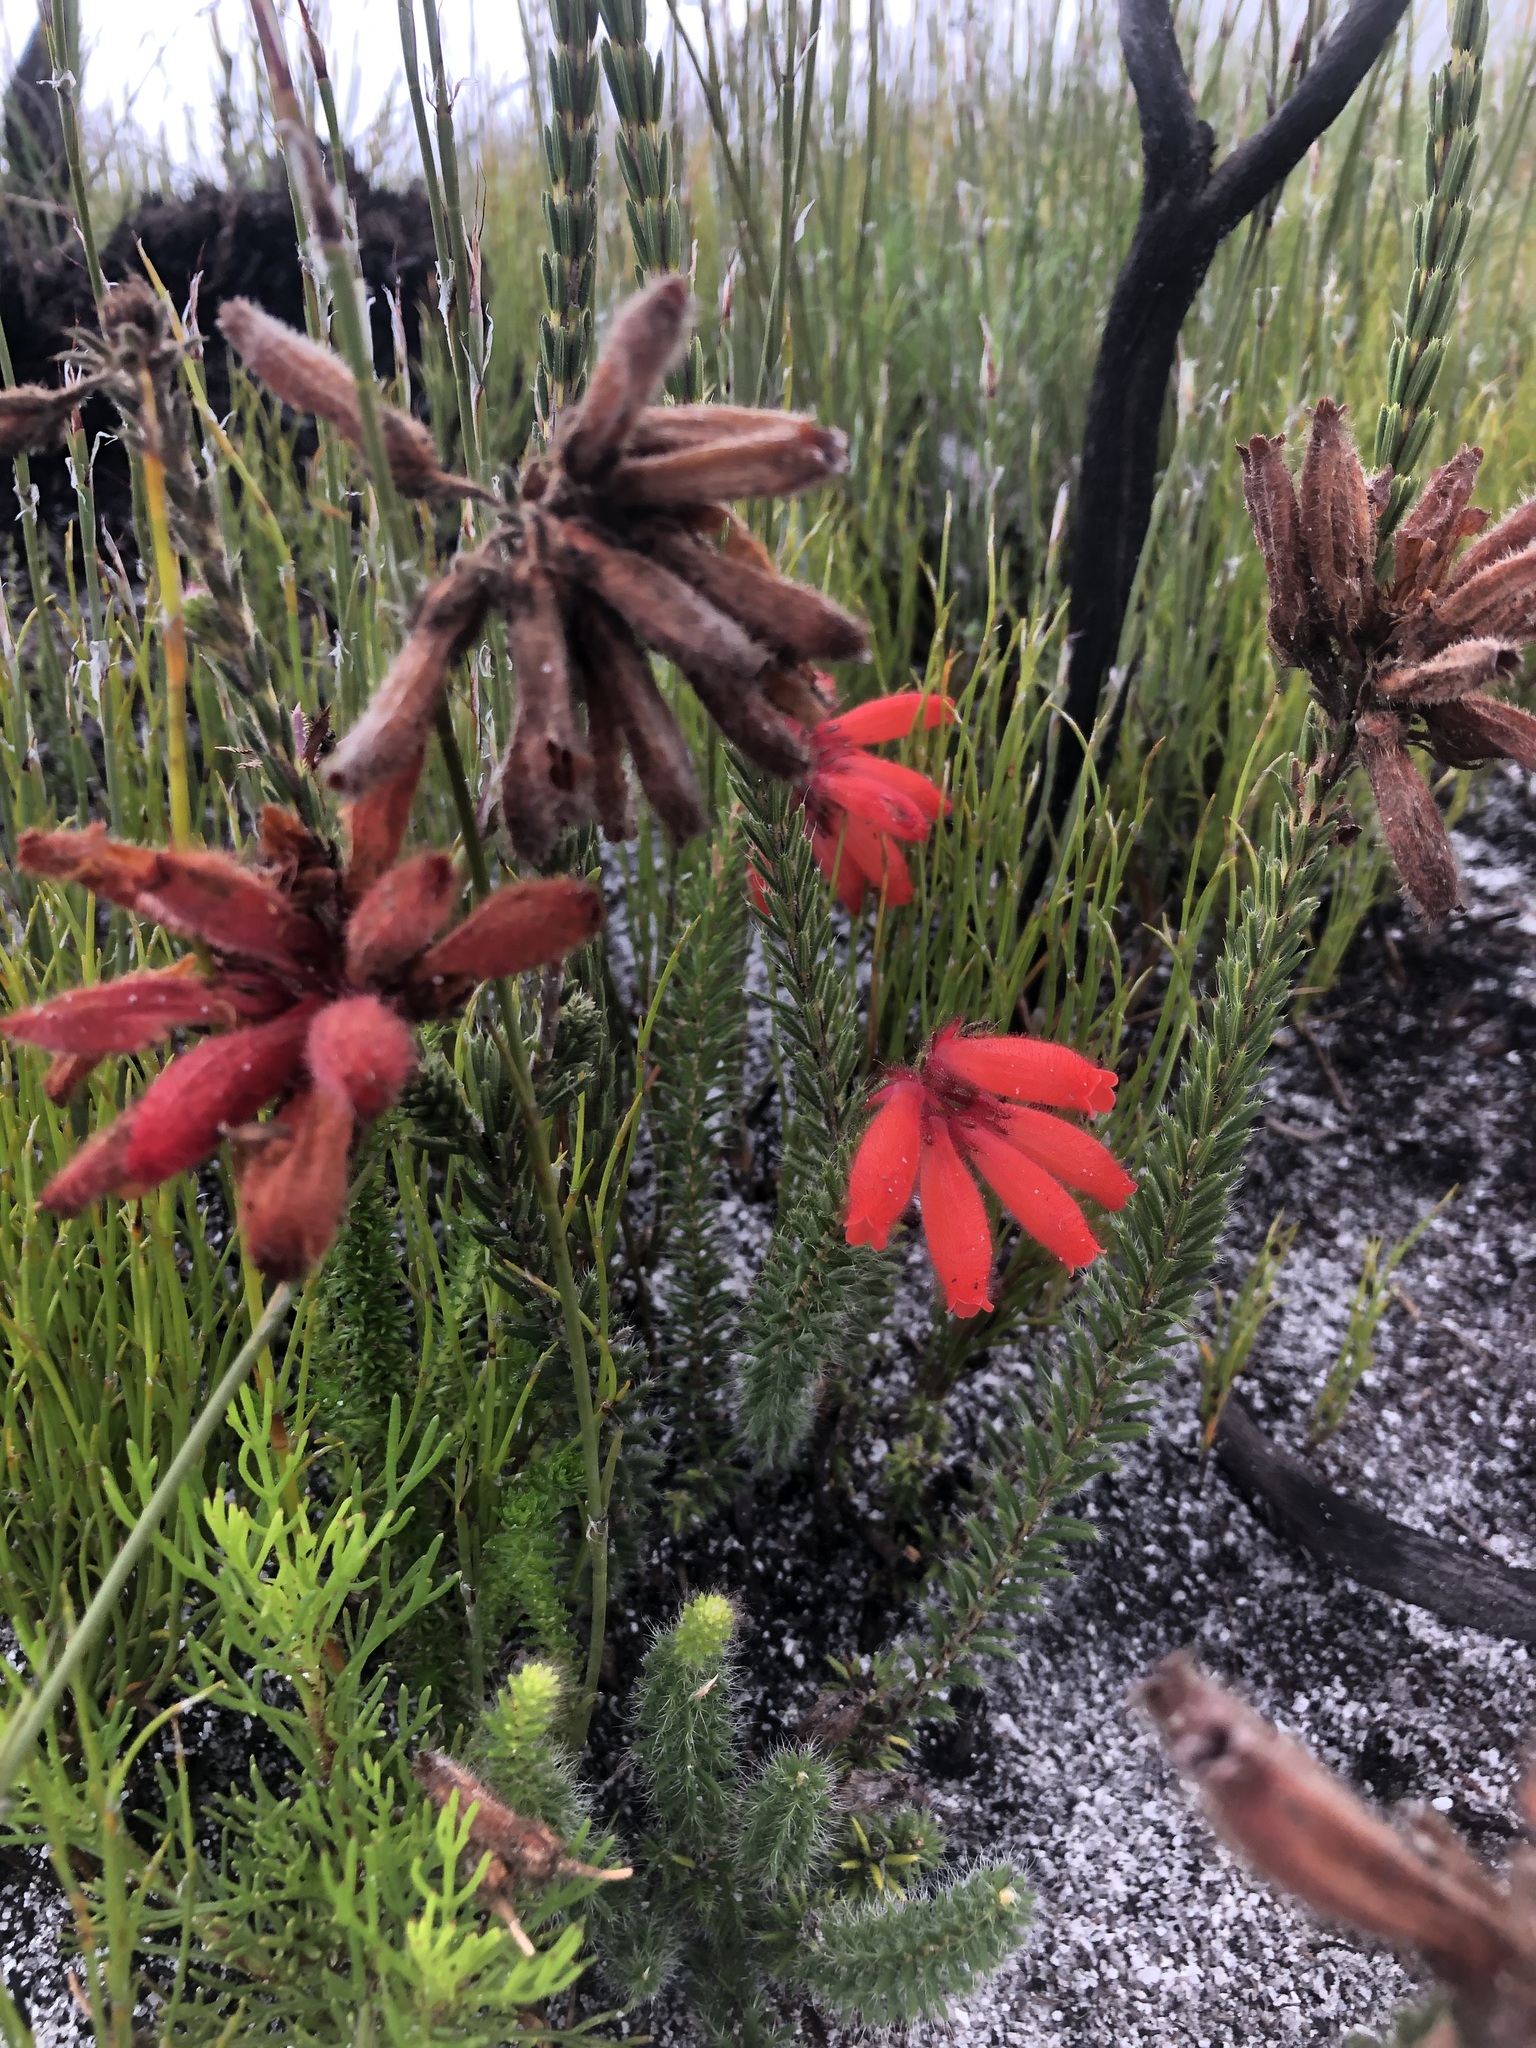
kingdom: Plantae
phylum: Tracheophyta
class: Magnoliopsida
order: Ericales
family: Ericaceae
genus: Erica
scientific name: Erica cerinthoides
